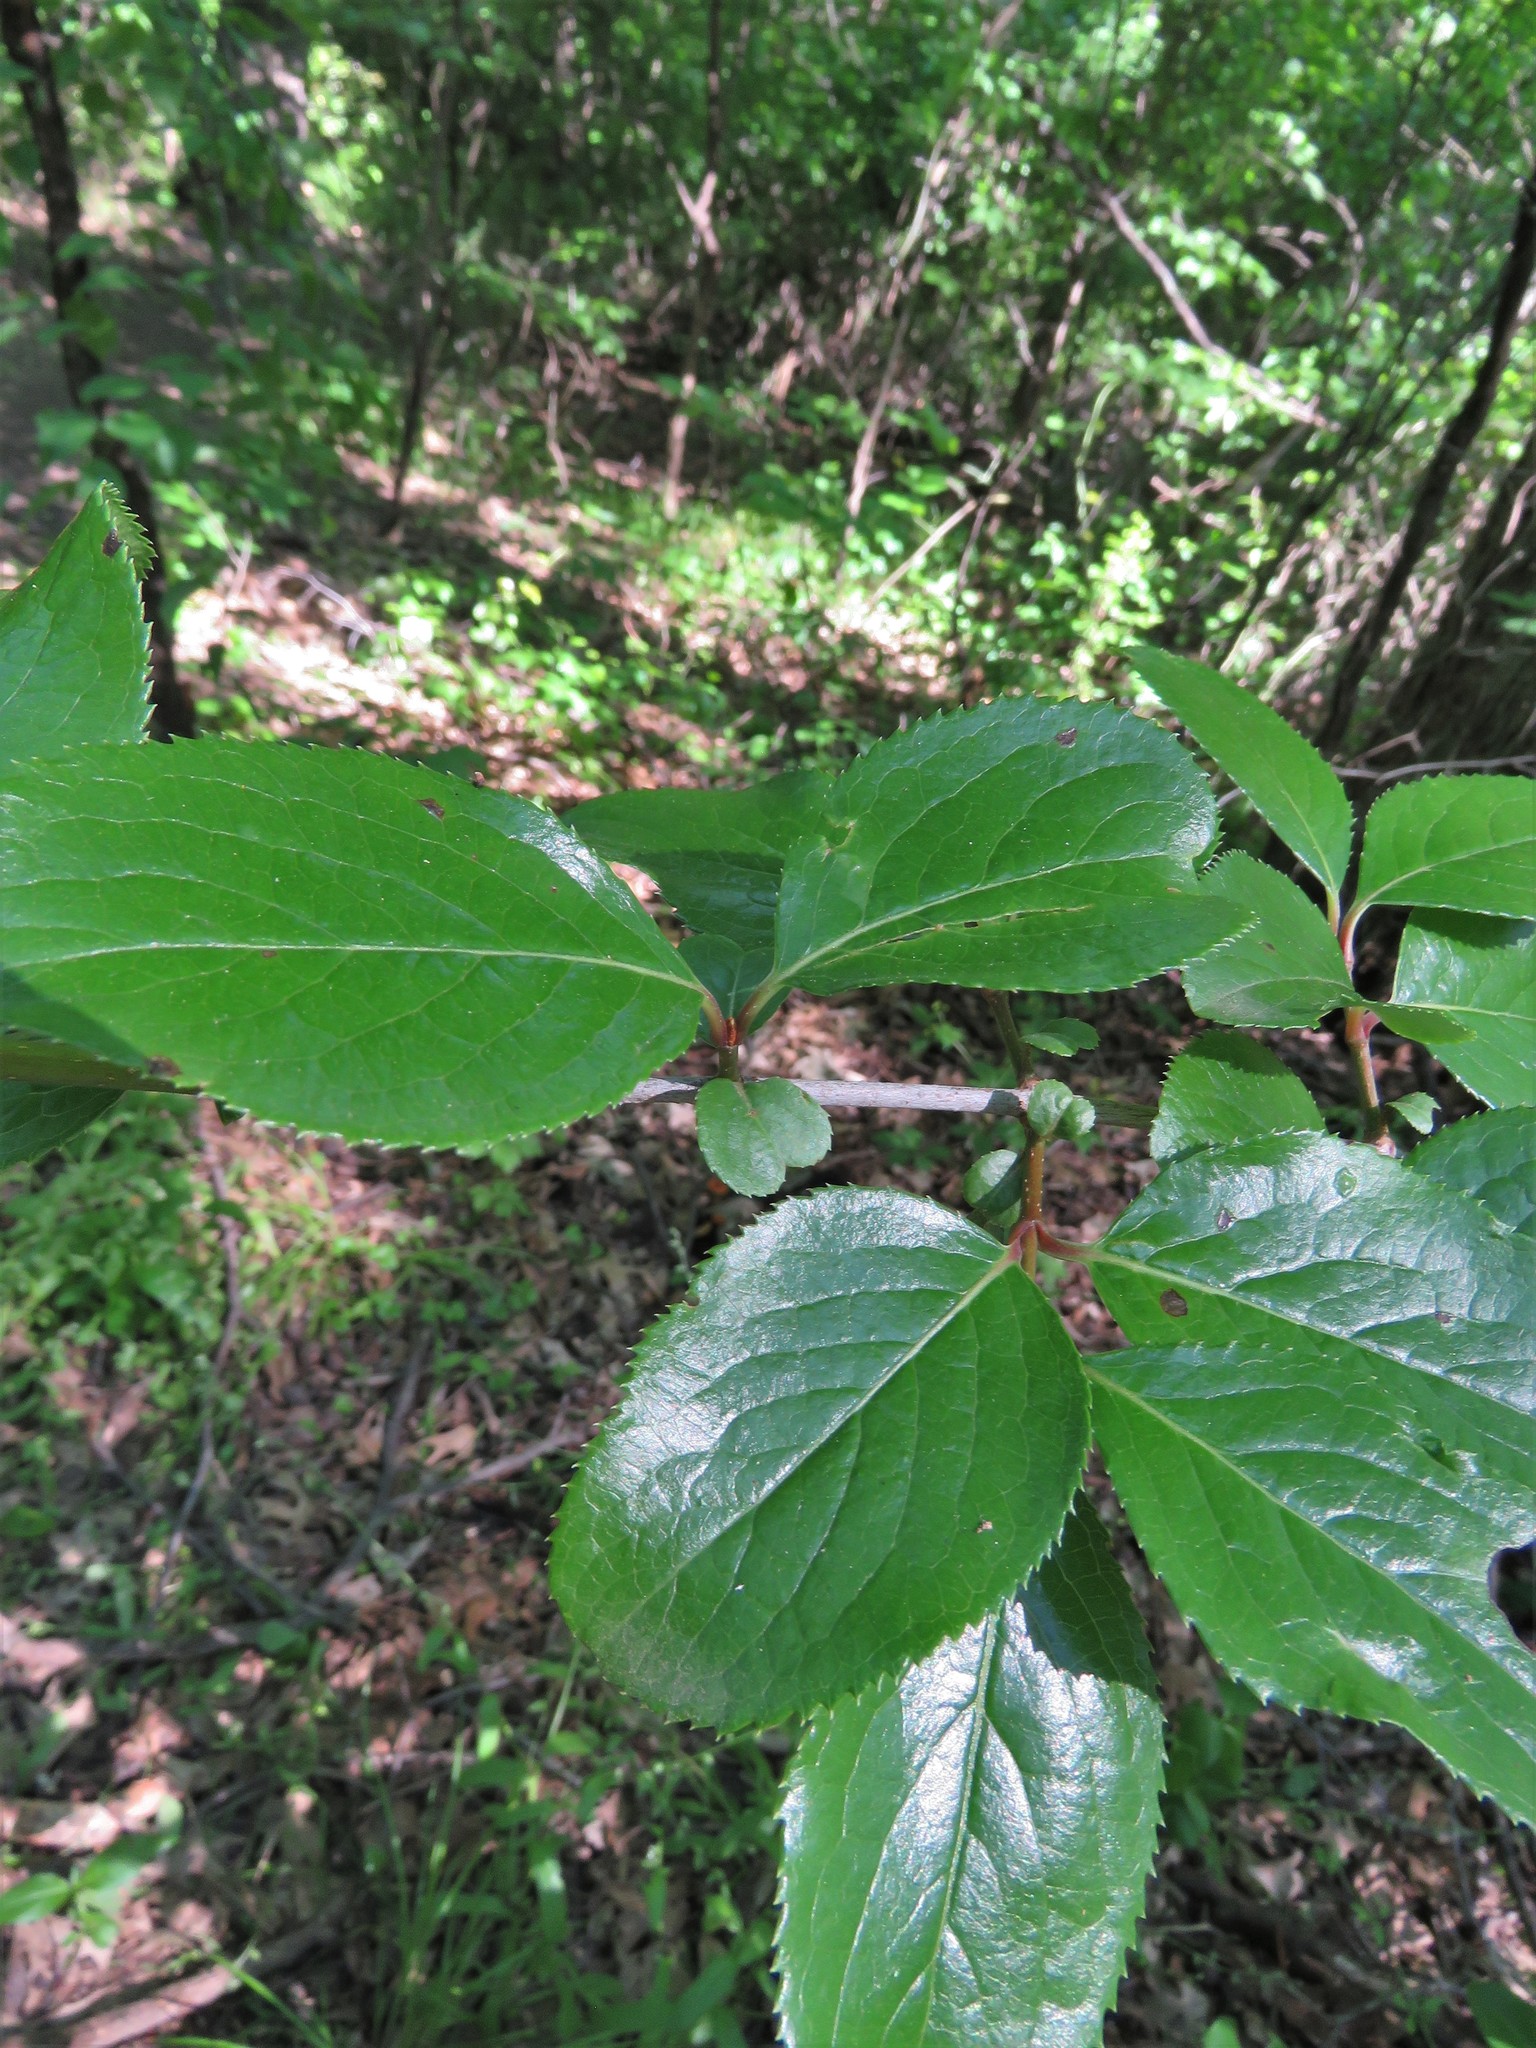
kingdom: Plantae
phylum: Tracheophyta
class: Magnoliopsida
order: Dipsacales
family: Viburnaceae
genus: Viburnum
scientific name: Viburnum rufidulum
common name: Blue haw
